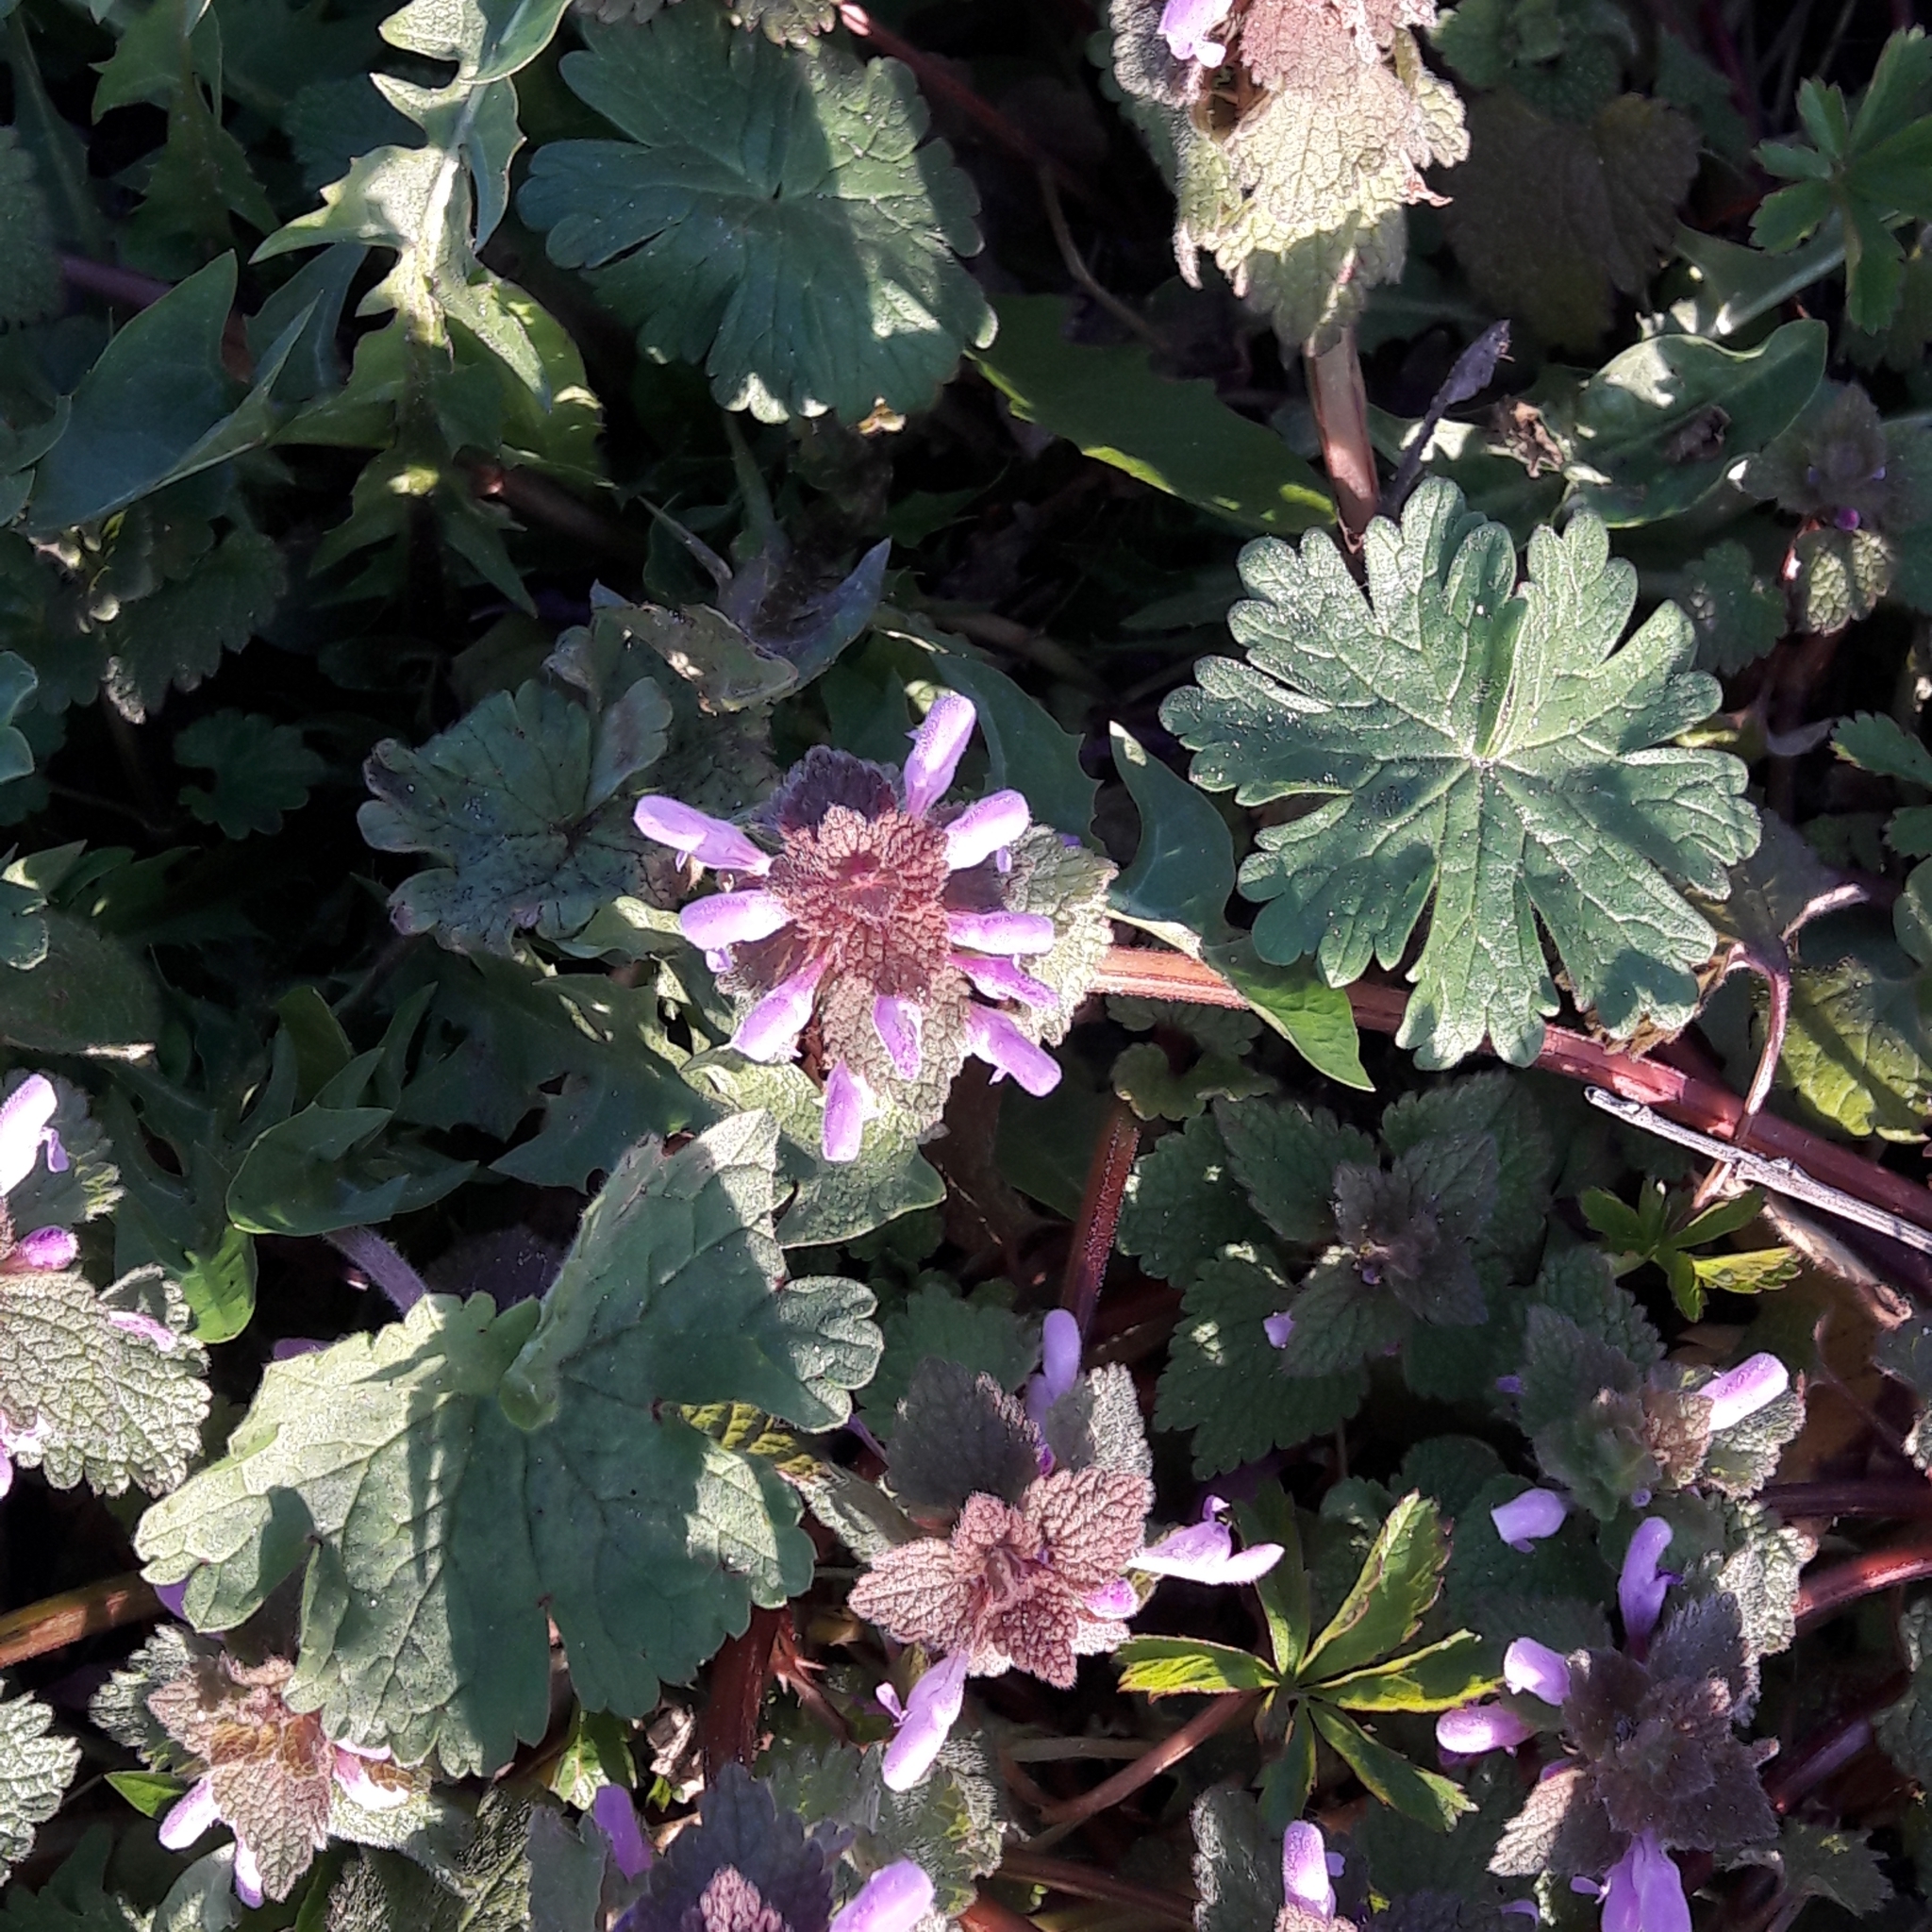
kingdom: Plantae
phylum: Tracheophyta
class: Magnoliopsida
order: Lamiales
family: Lamiaceae
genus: Lamium
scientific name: Lamium purpureum
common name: Red dead-nettle
